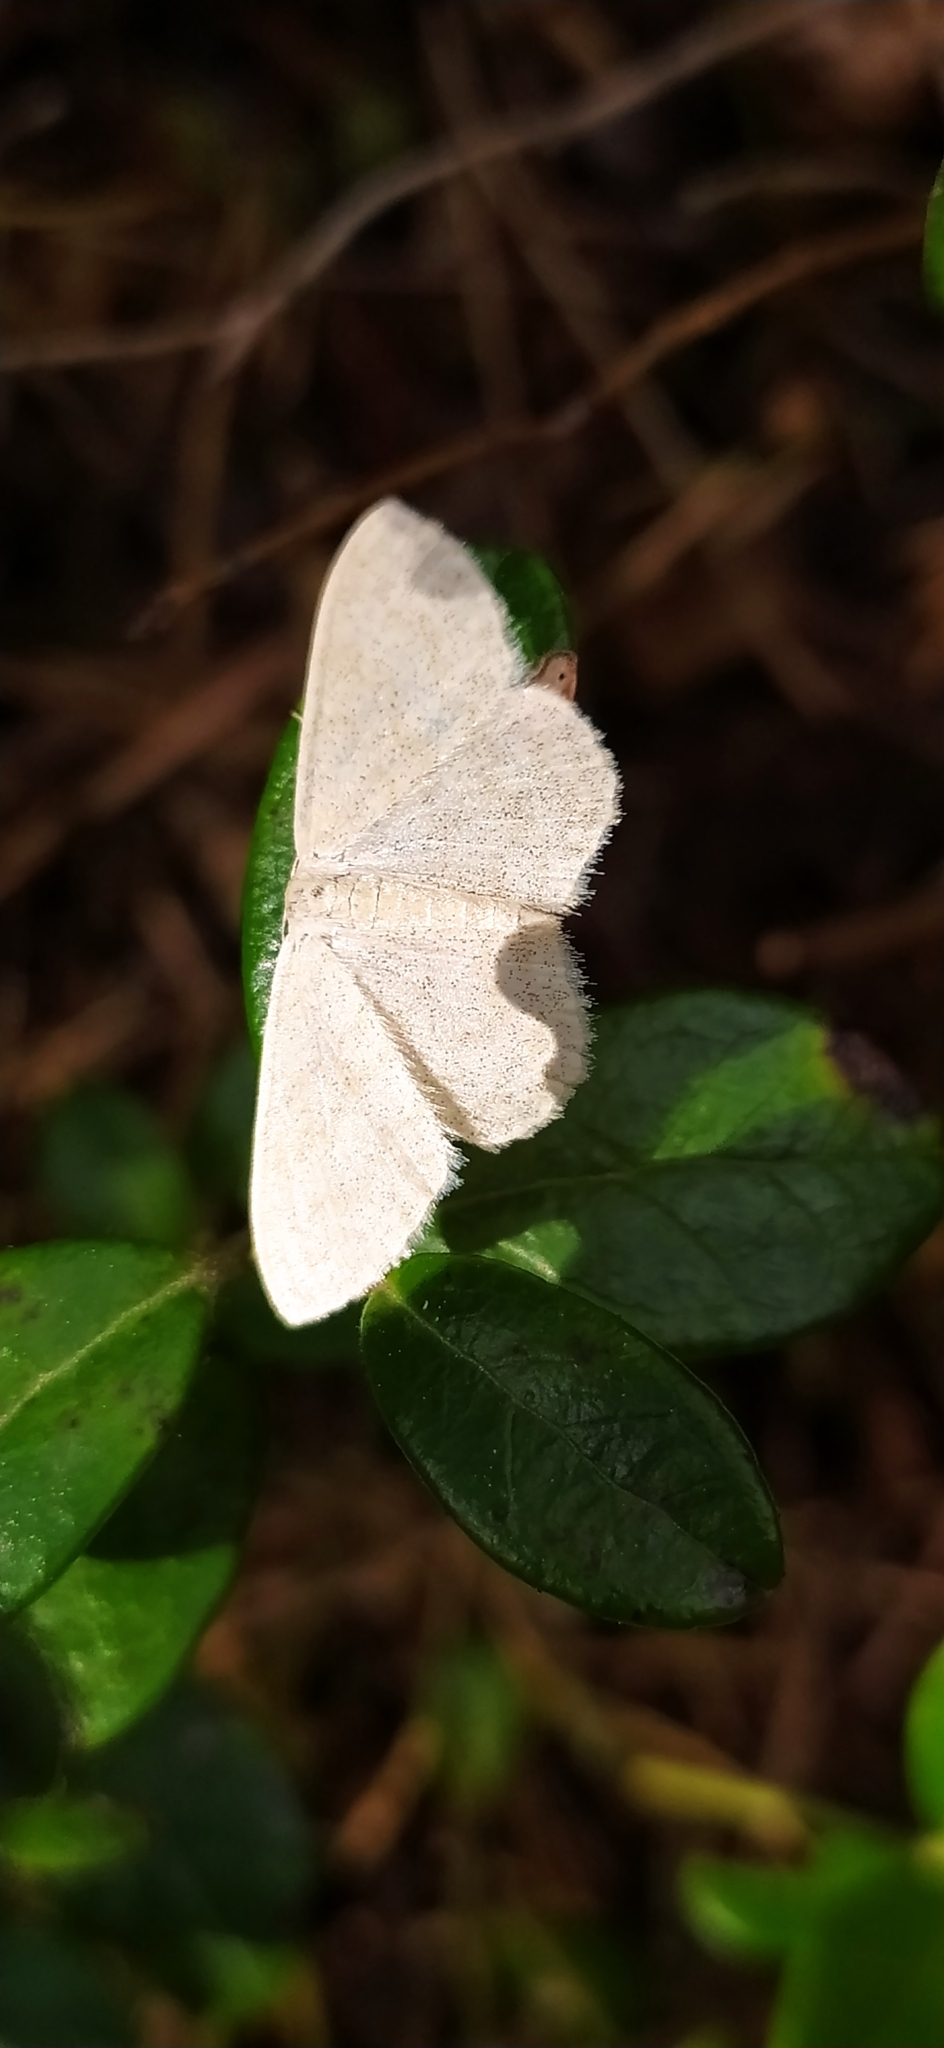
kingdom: Animalia
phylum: Arthropoda
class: Insecta
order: Lepidoptera
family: Geometridae
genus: Scopula
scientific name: Scopula floslactata
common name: Cream wave
